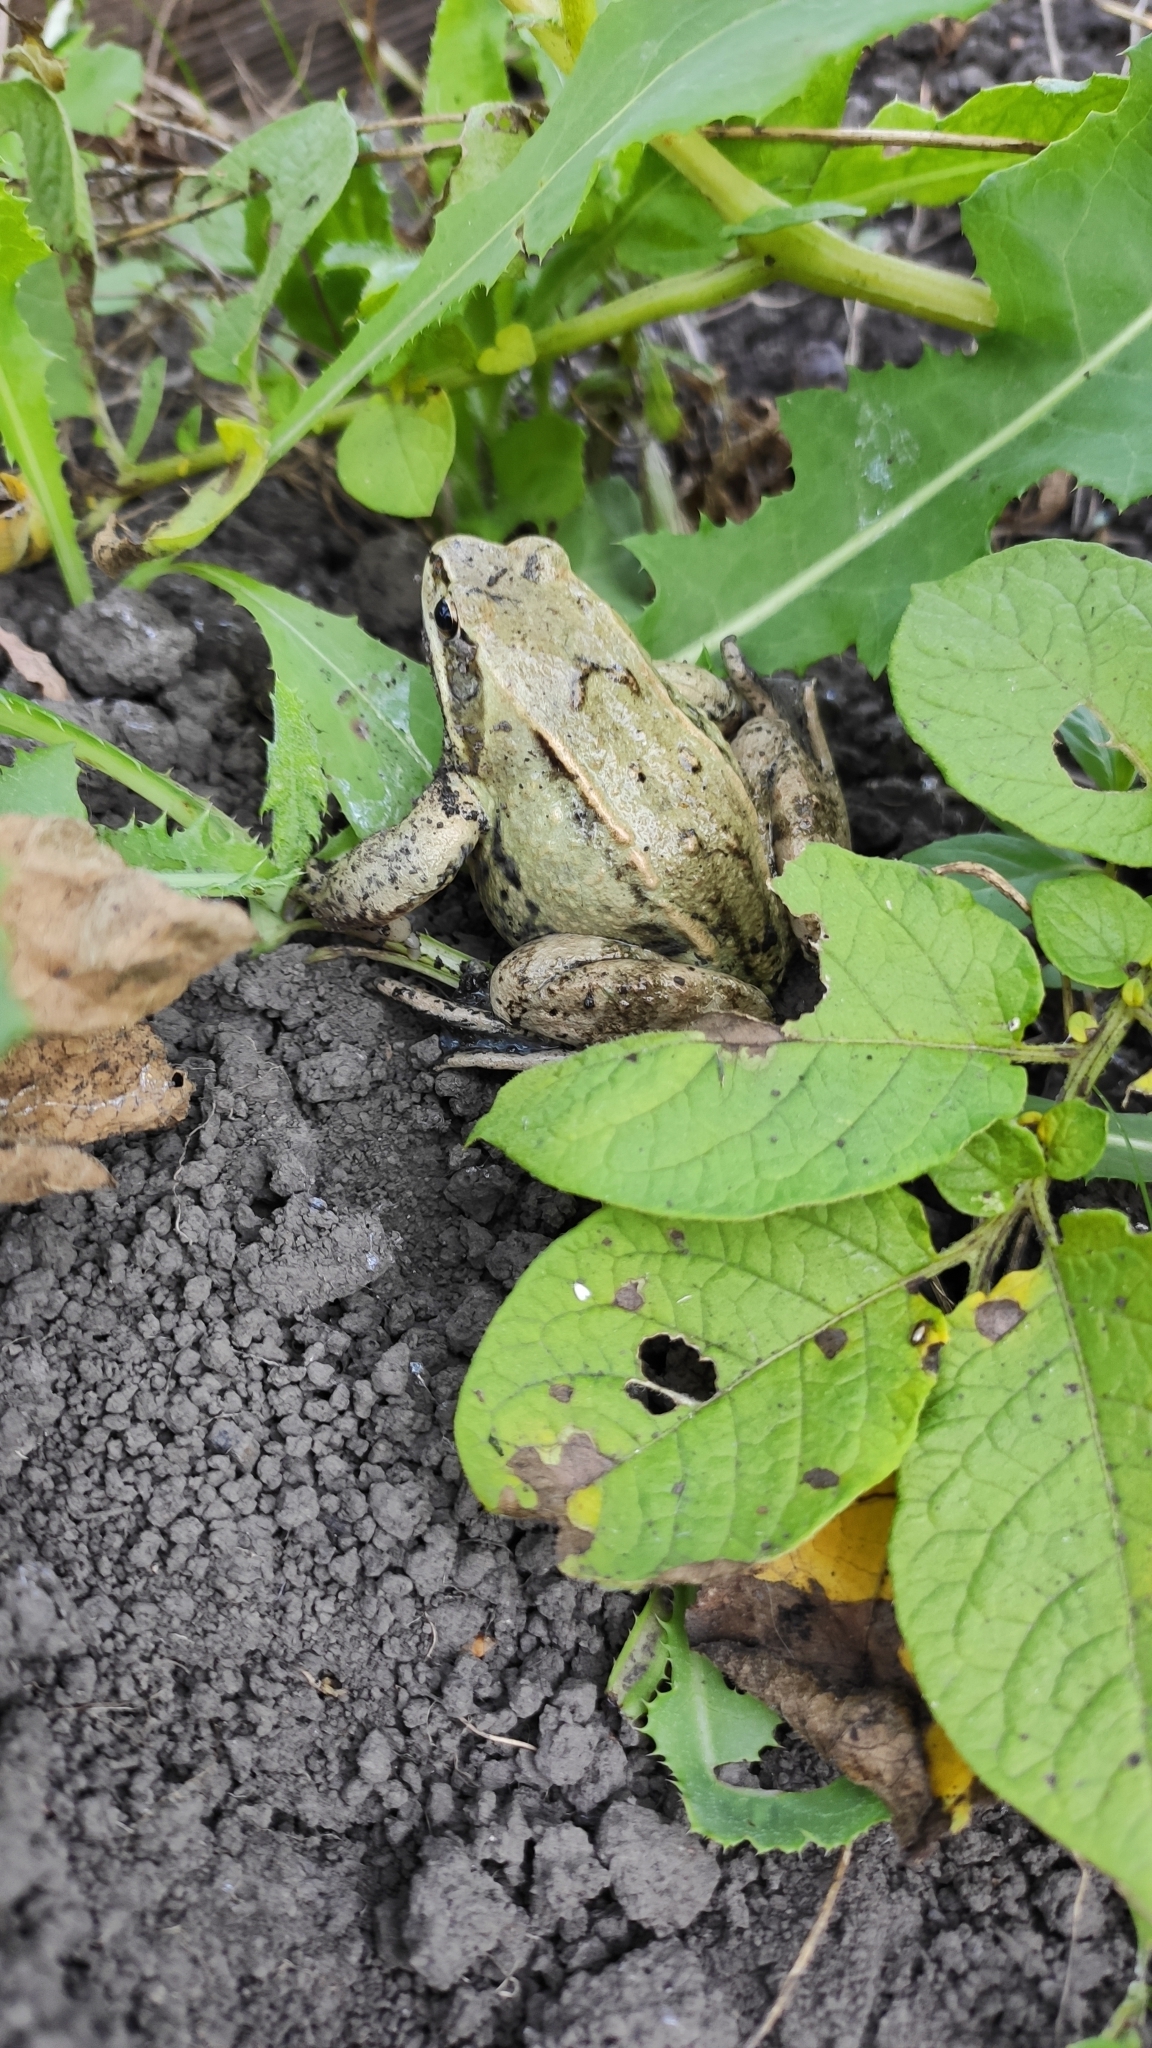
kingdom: Animalia
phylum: Chordata
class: Amphibia
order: Anura
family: Ranidae
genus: Rana
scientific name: Rana arvalis
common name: Moor frog
